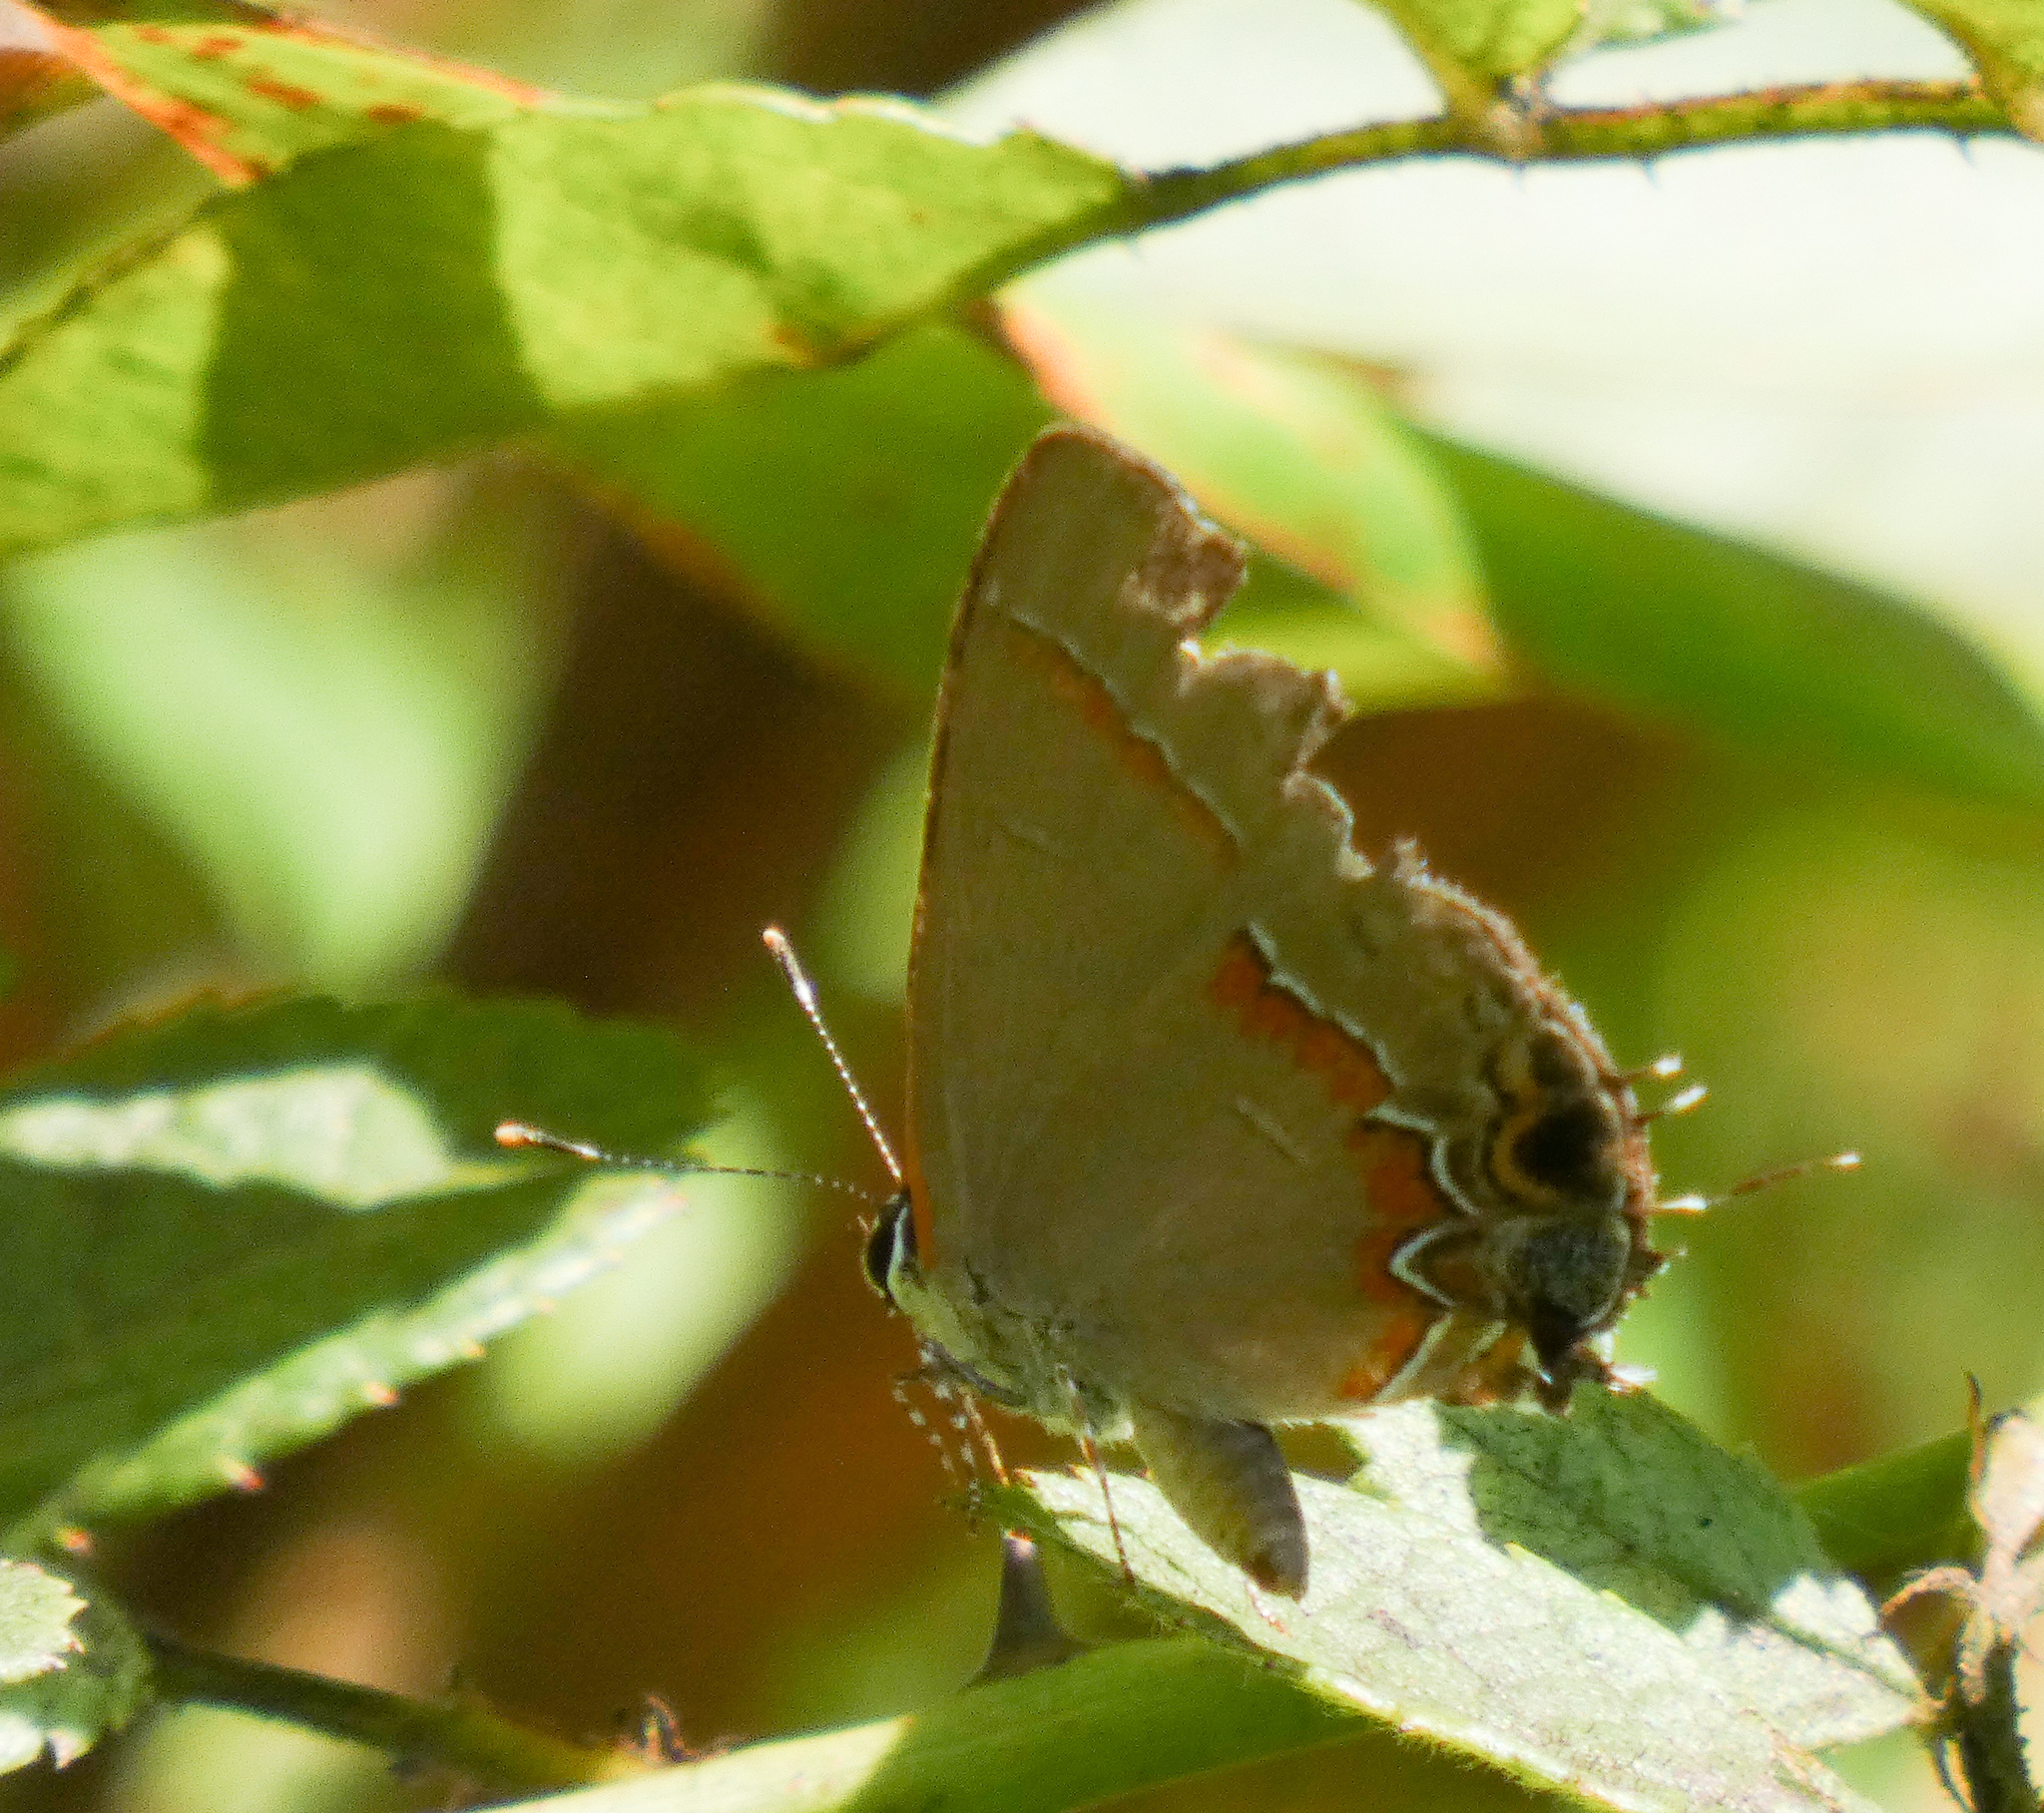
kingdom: Animalia
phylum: Arthropoda
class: Insecta
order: Lepidoptera
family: Lycaenidae
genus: Calycopis
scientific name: Calycopis cecrops
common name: Red-banded hairstreak
